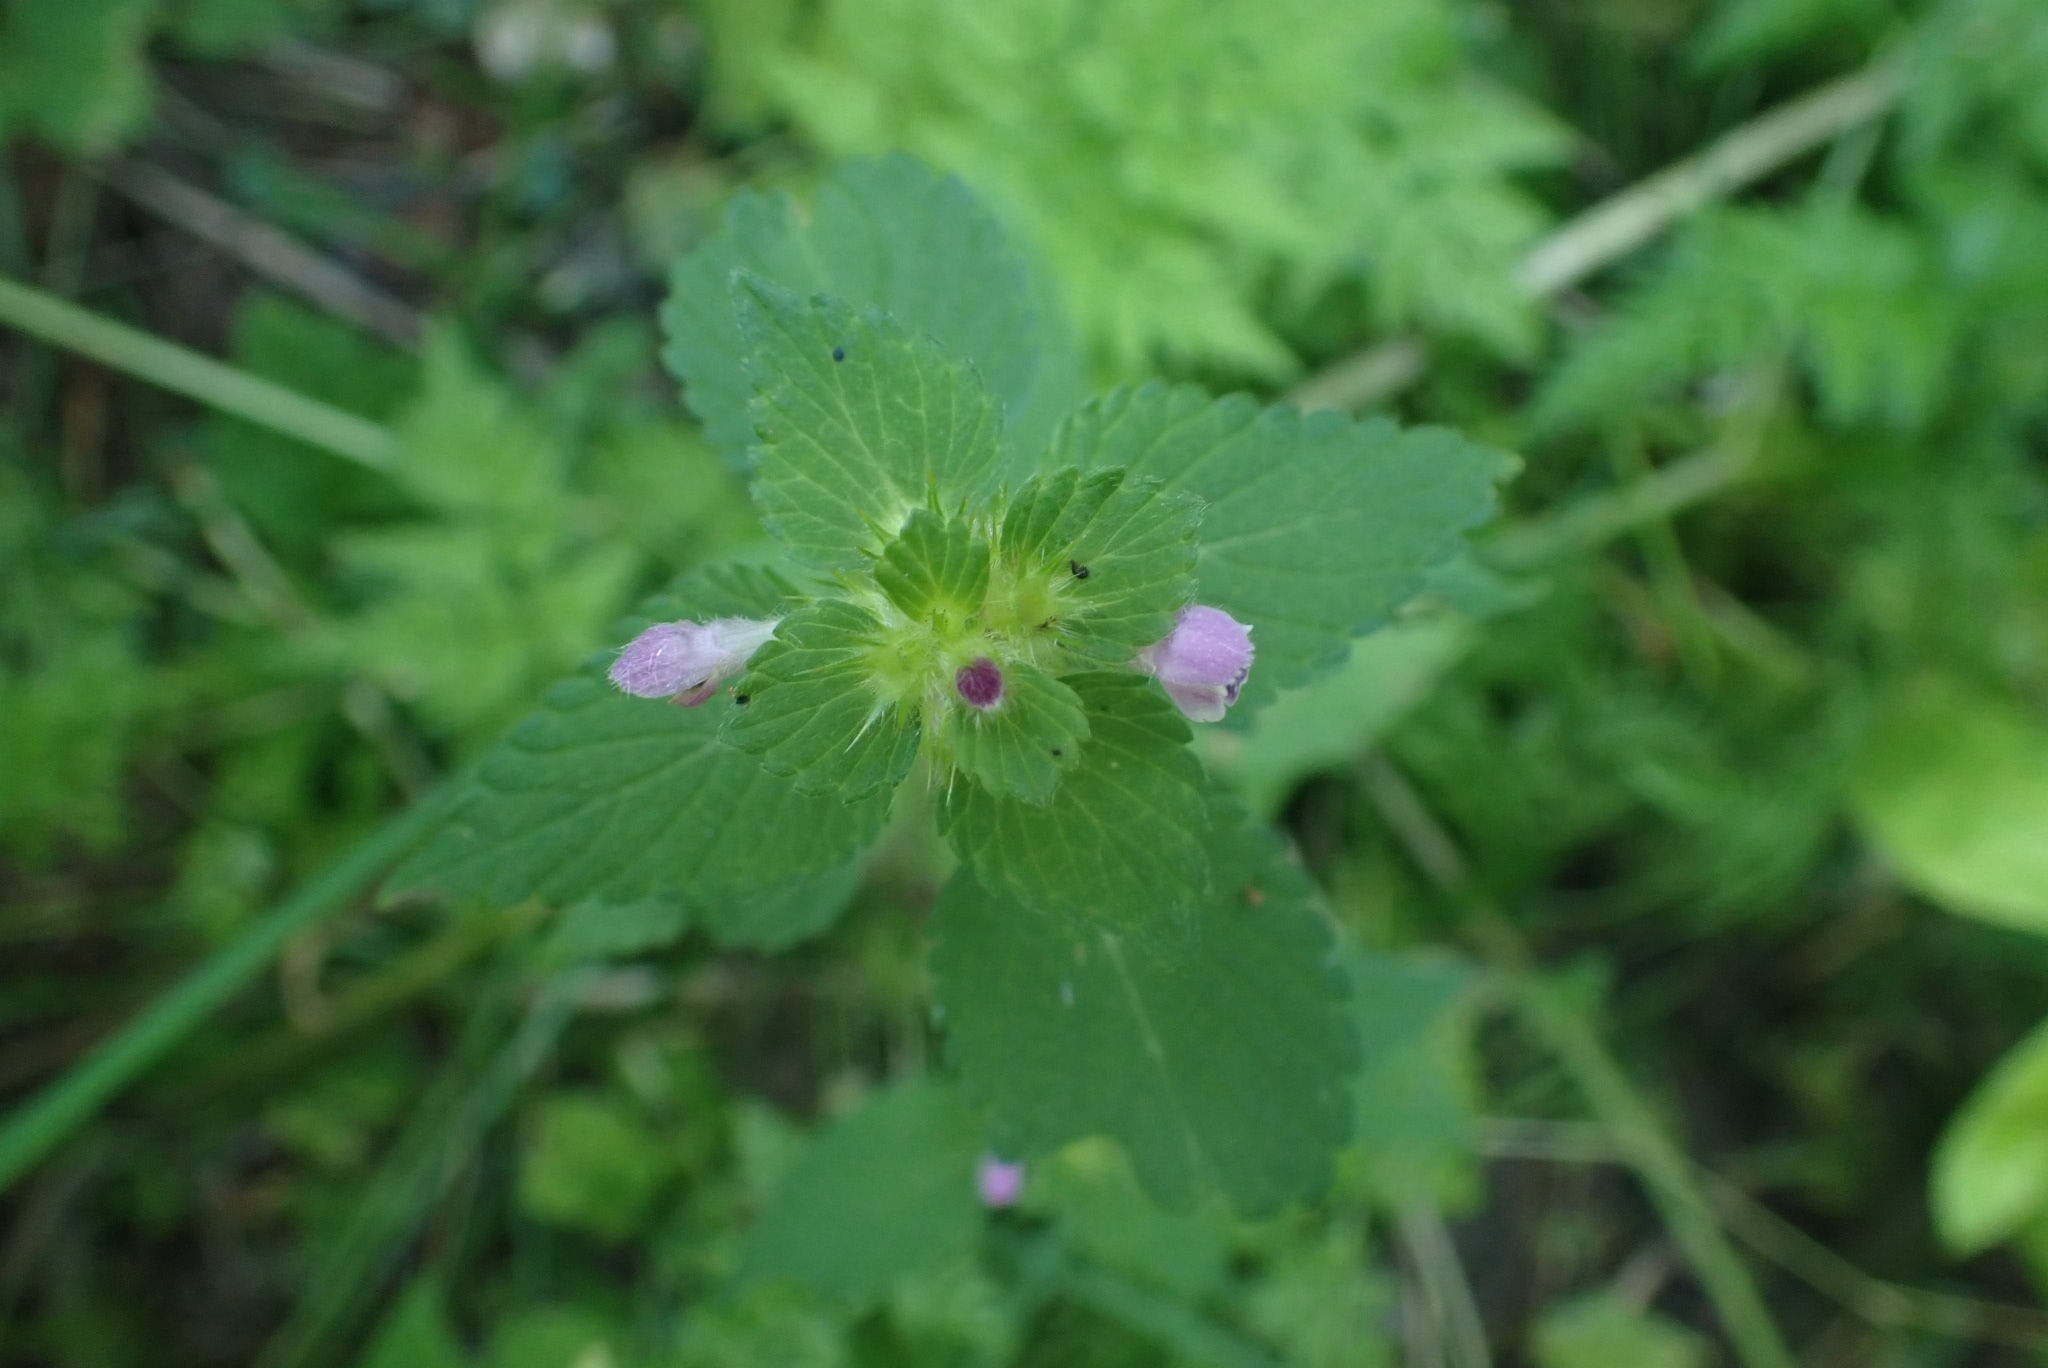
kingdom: Plantae
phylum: Tracheophyta
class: Magnoliopsida
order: Lamiales
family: Lamiaceae
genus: Galeopsis
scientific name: Galeopsis bifida
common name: Bifid hemp-nettle
